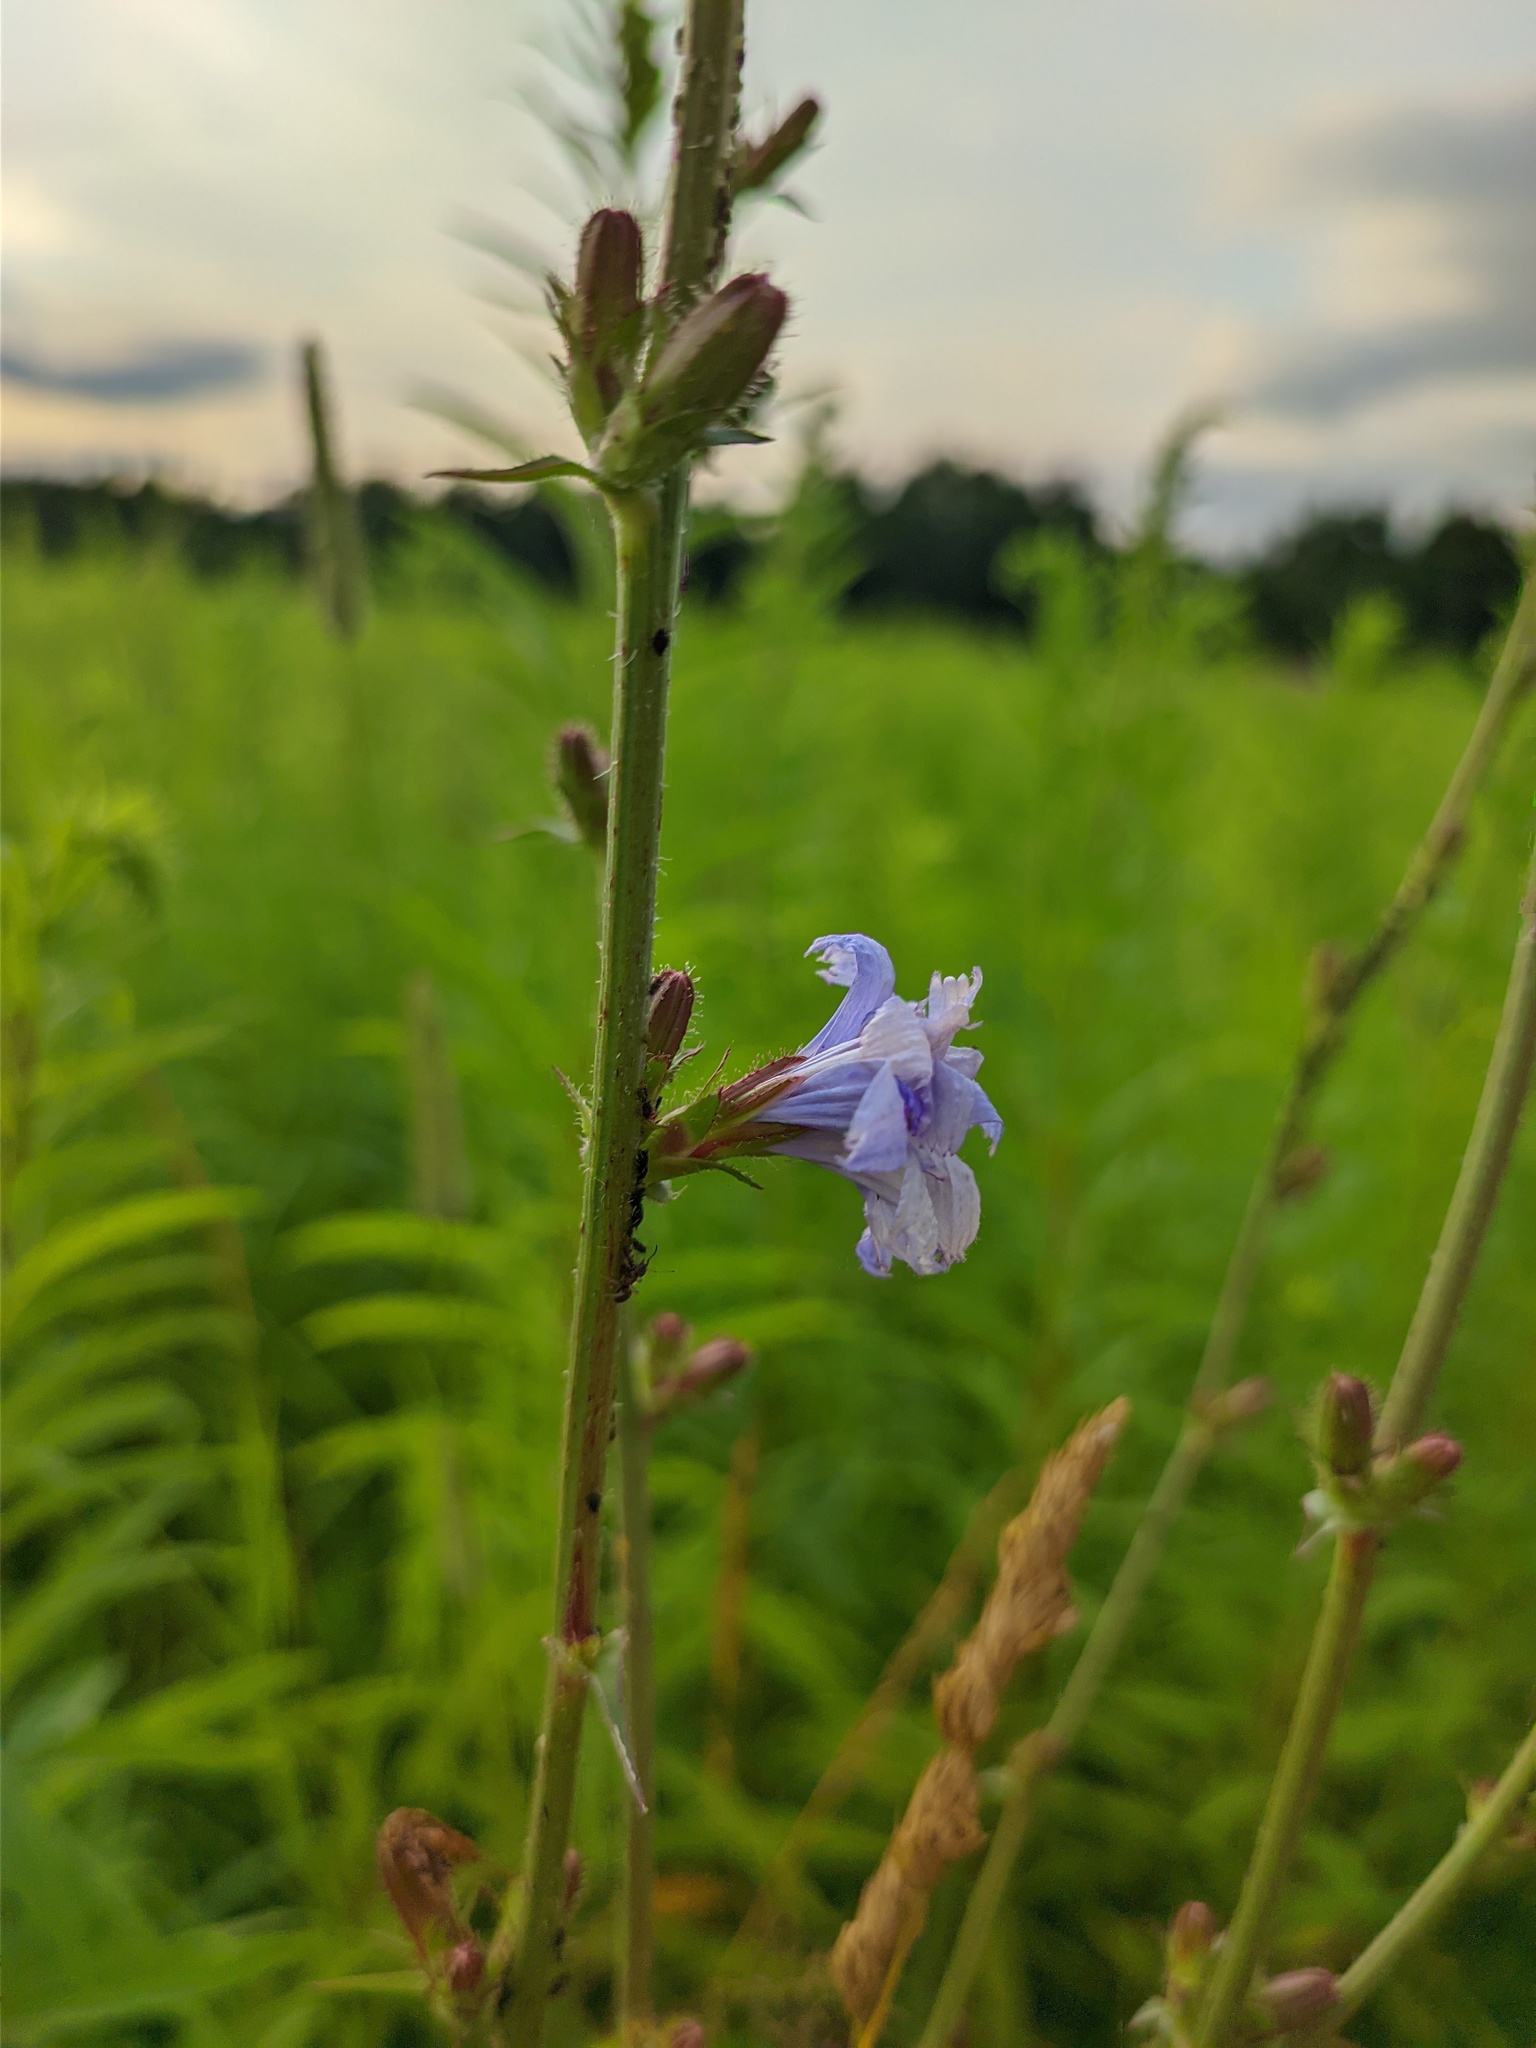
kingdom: Plantae
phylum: Tracheophyta
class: Magnoliopsida
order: Asterales
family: Asteraceae
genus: Cichorium
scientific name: Cichorium intybus
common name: Chicory
